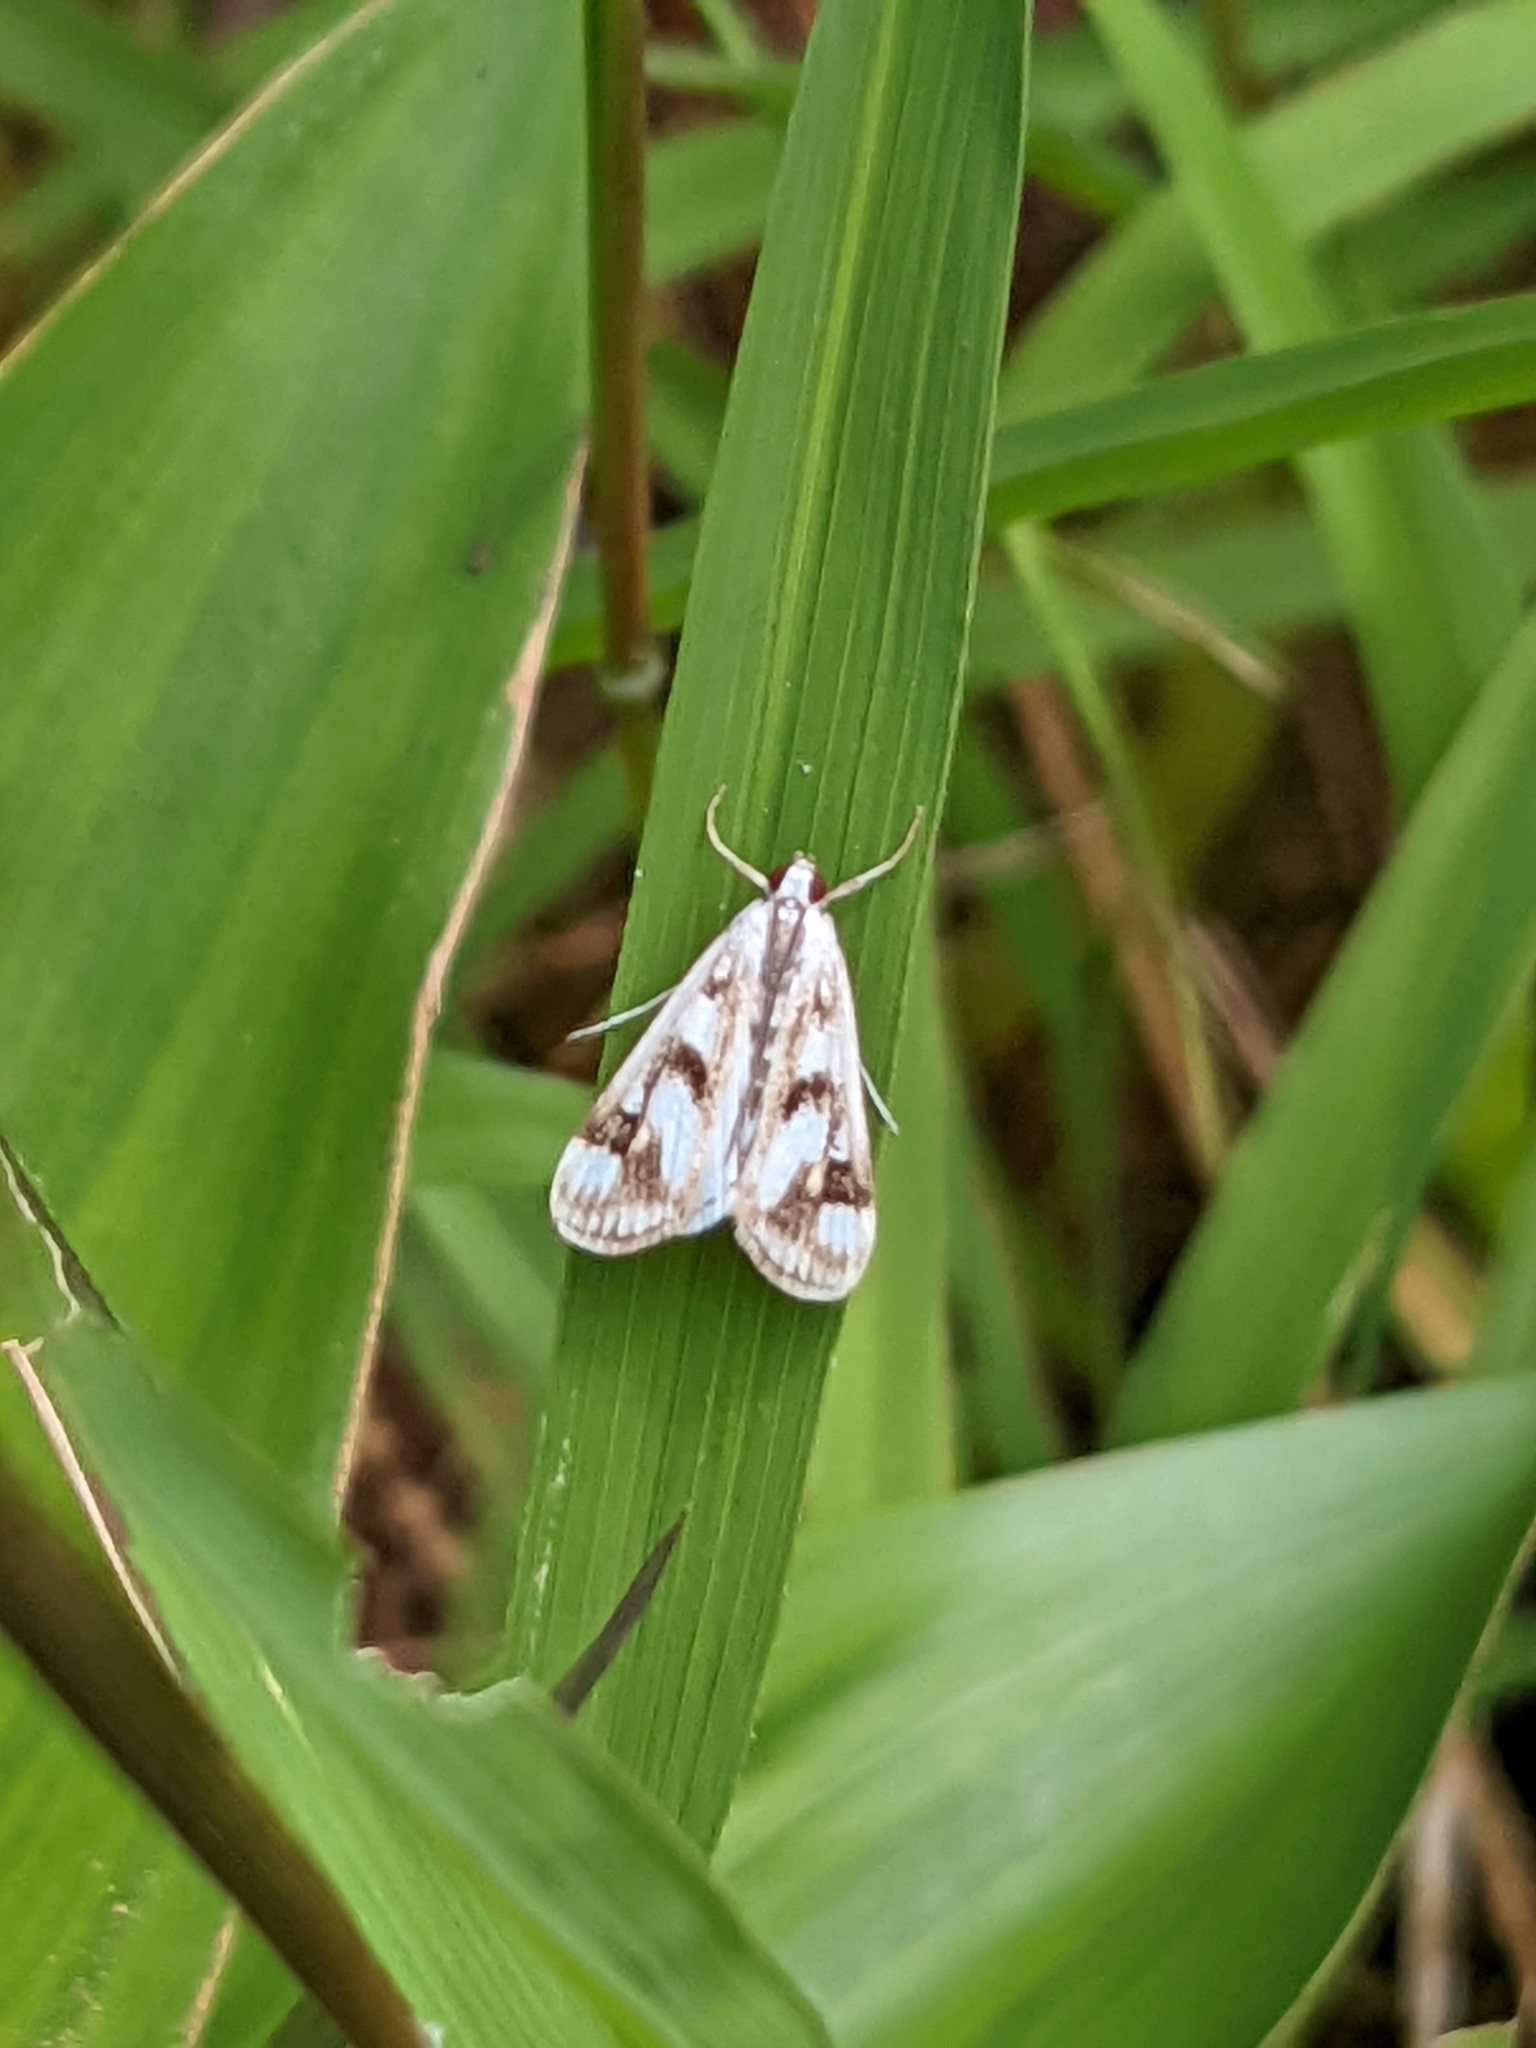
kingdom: Animalia
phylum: Arthropoda
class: Insecta
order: Lepidoptera
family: Crambidae
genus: Parapoynx
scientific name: Parapoynx maculalis
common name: Polymorphic pondweed moth
